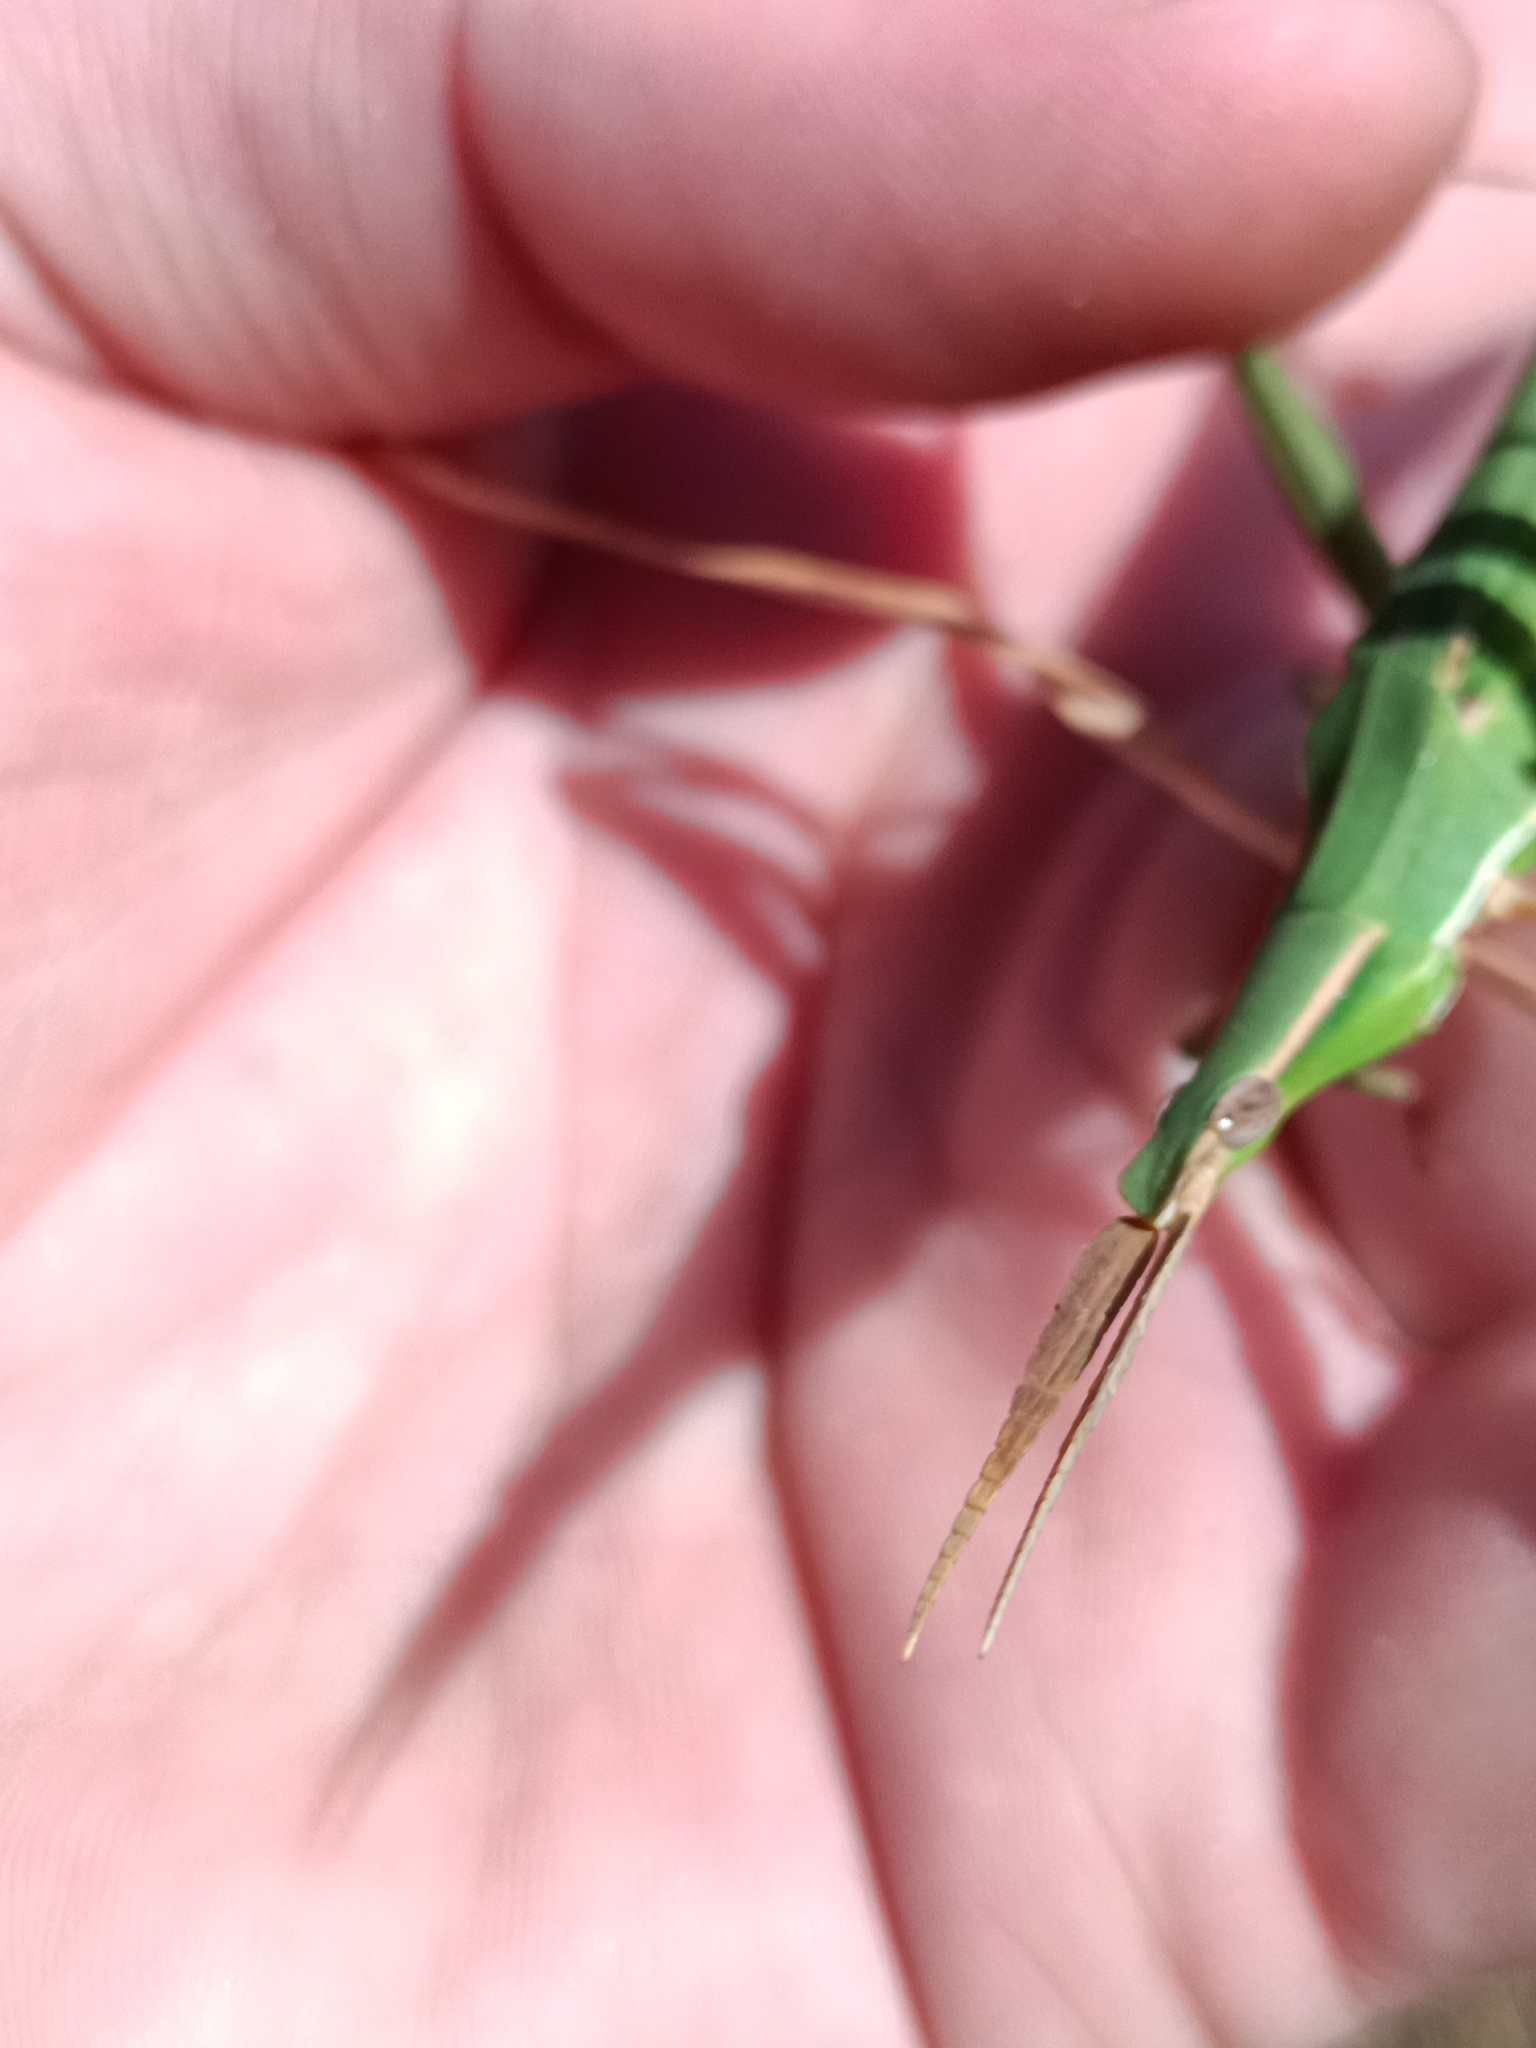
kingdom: Animalia
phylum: Arthropoda
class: Insecta
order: Orthoptera
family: Acrididae
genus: Acrida
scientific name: Acrida conica
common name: Giant green slantface
